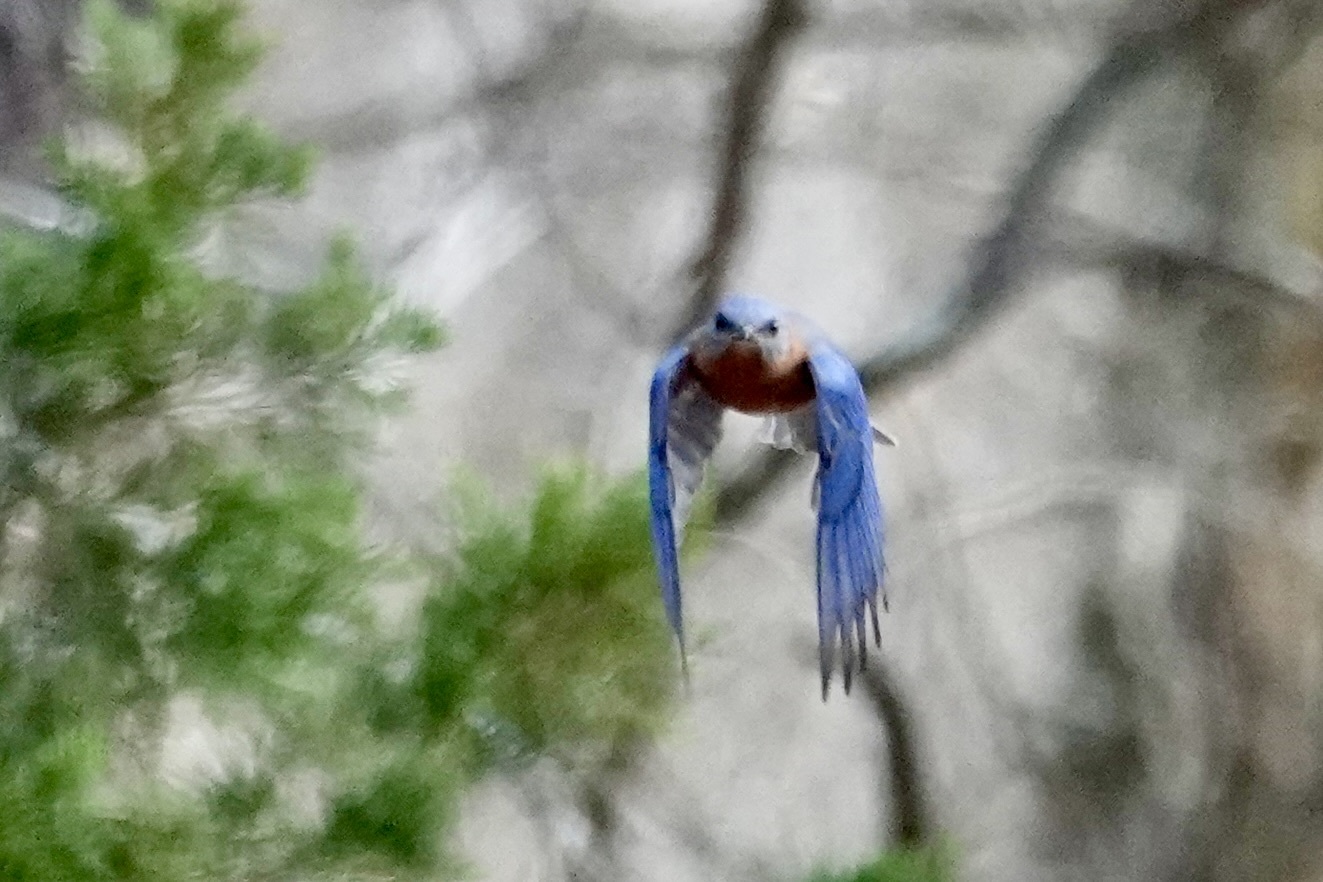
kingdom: Animalia
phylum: Chordata
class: Aves
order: Passeriformes
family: Turdidae
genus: Sialia
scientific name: Sialia sialis
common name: Eastern bluebird
